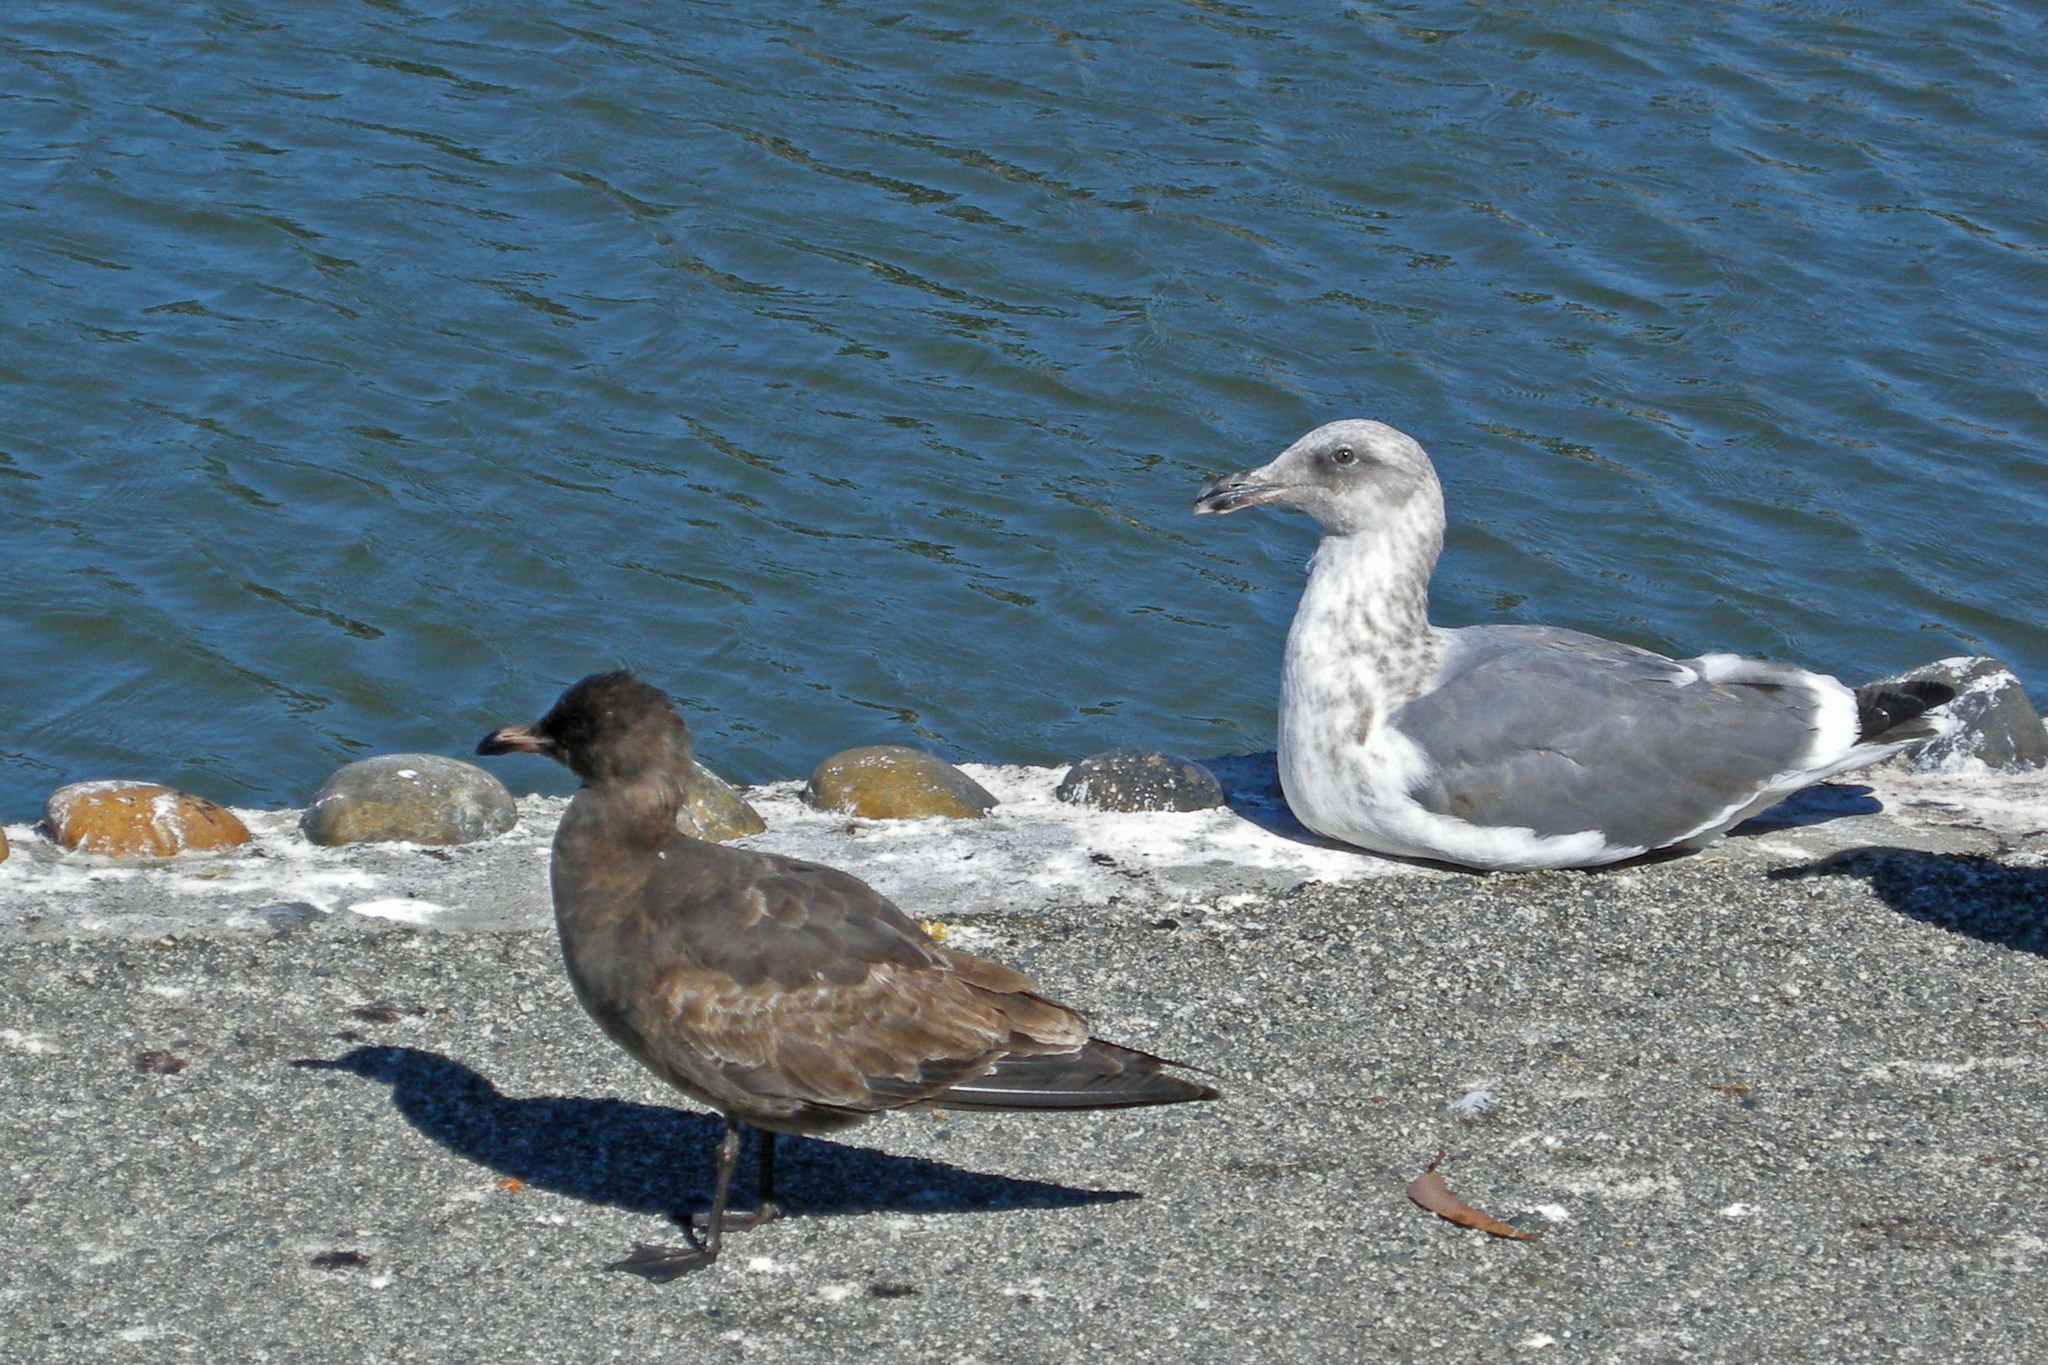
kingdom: Animalia
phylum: Chordata
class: Aves
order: Charadriiformes
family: Laridae
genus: Larus
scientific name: Larus occidentalis
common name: Western gull
